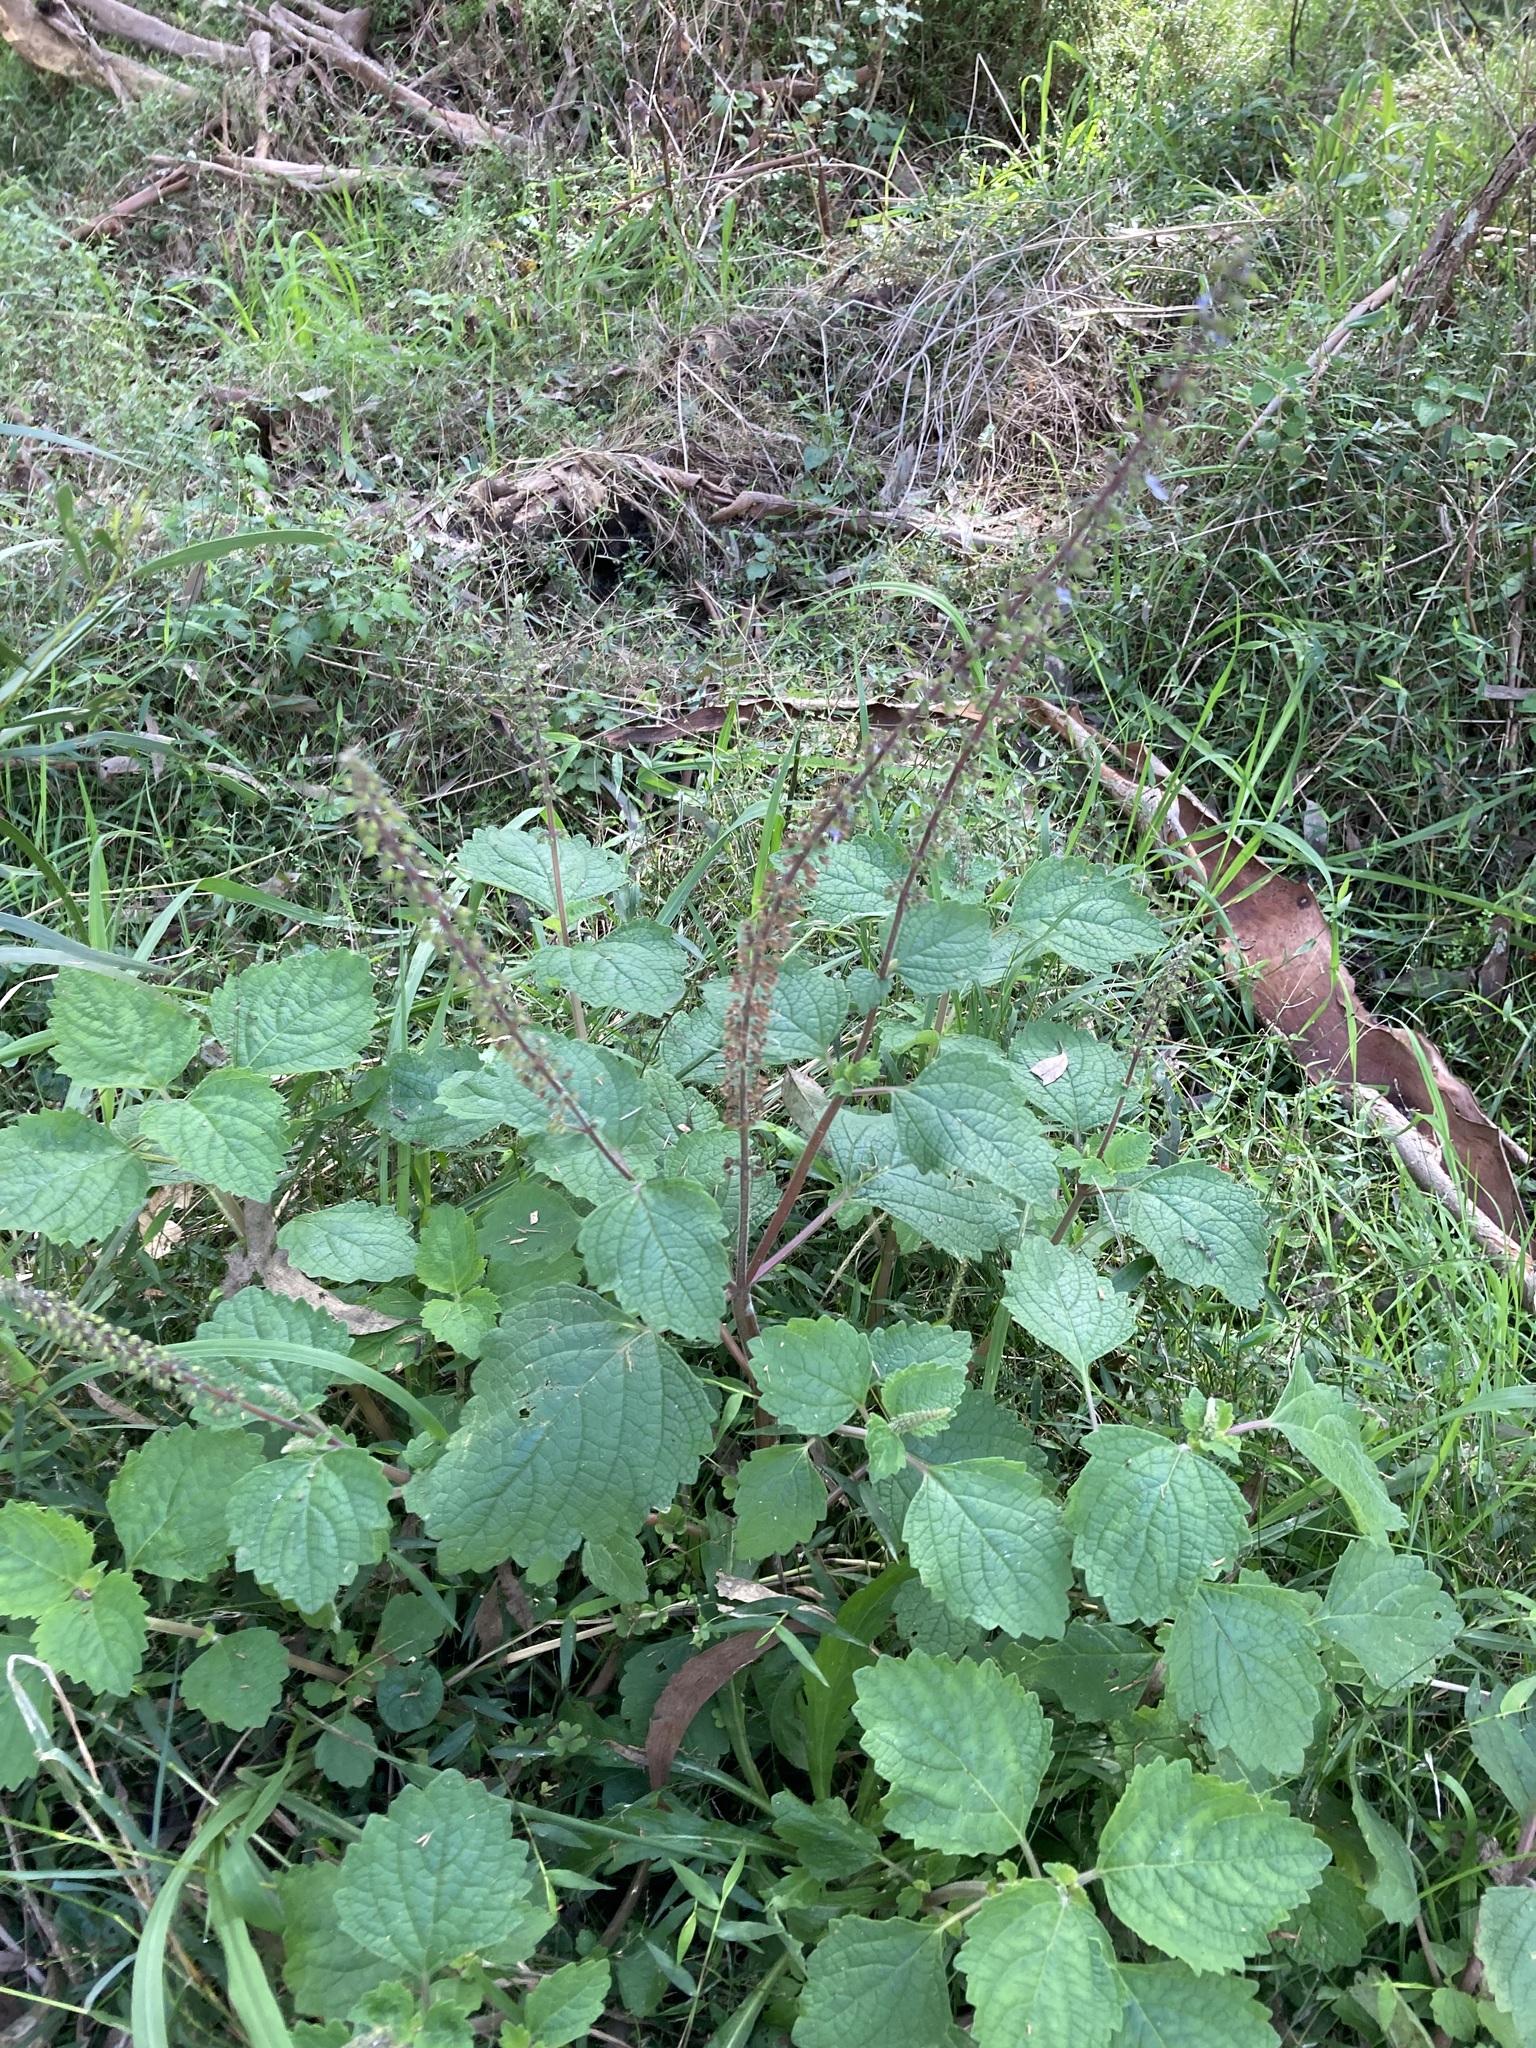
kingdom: Plantae
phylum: Tracheophyta
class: Magnoliopsida
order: Lamiales
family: Lamiaceae
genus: Coleus
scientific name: Coleus australis
